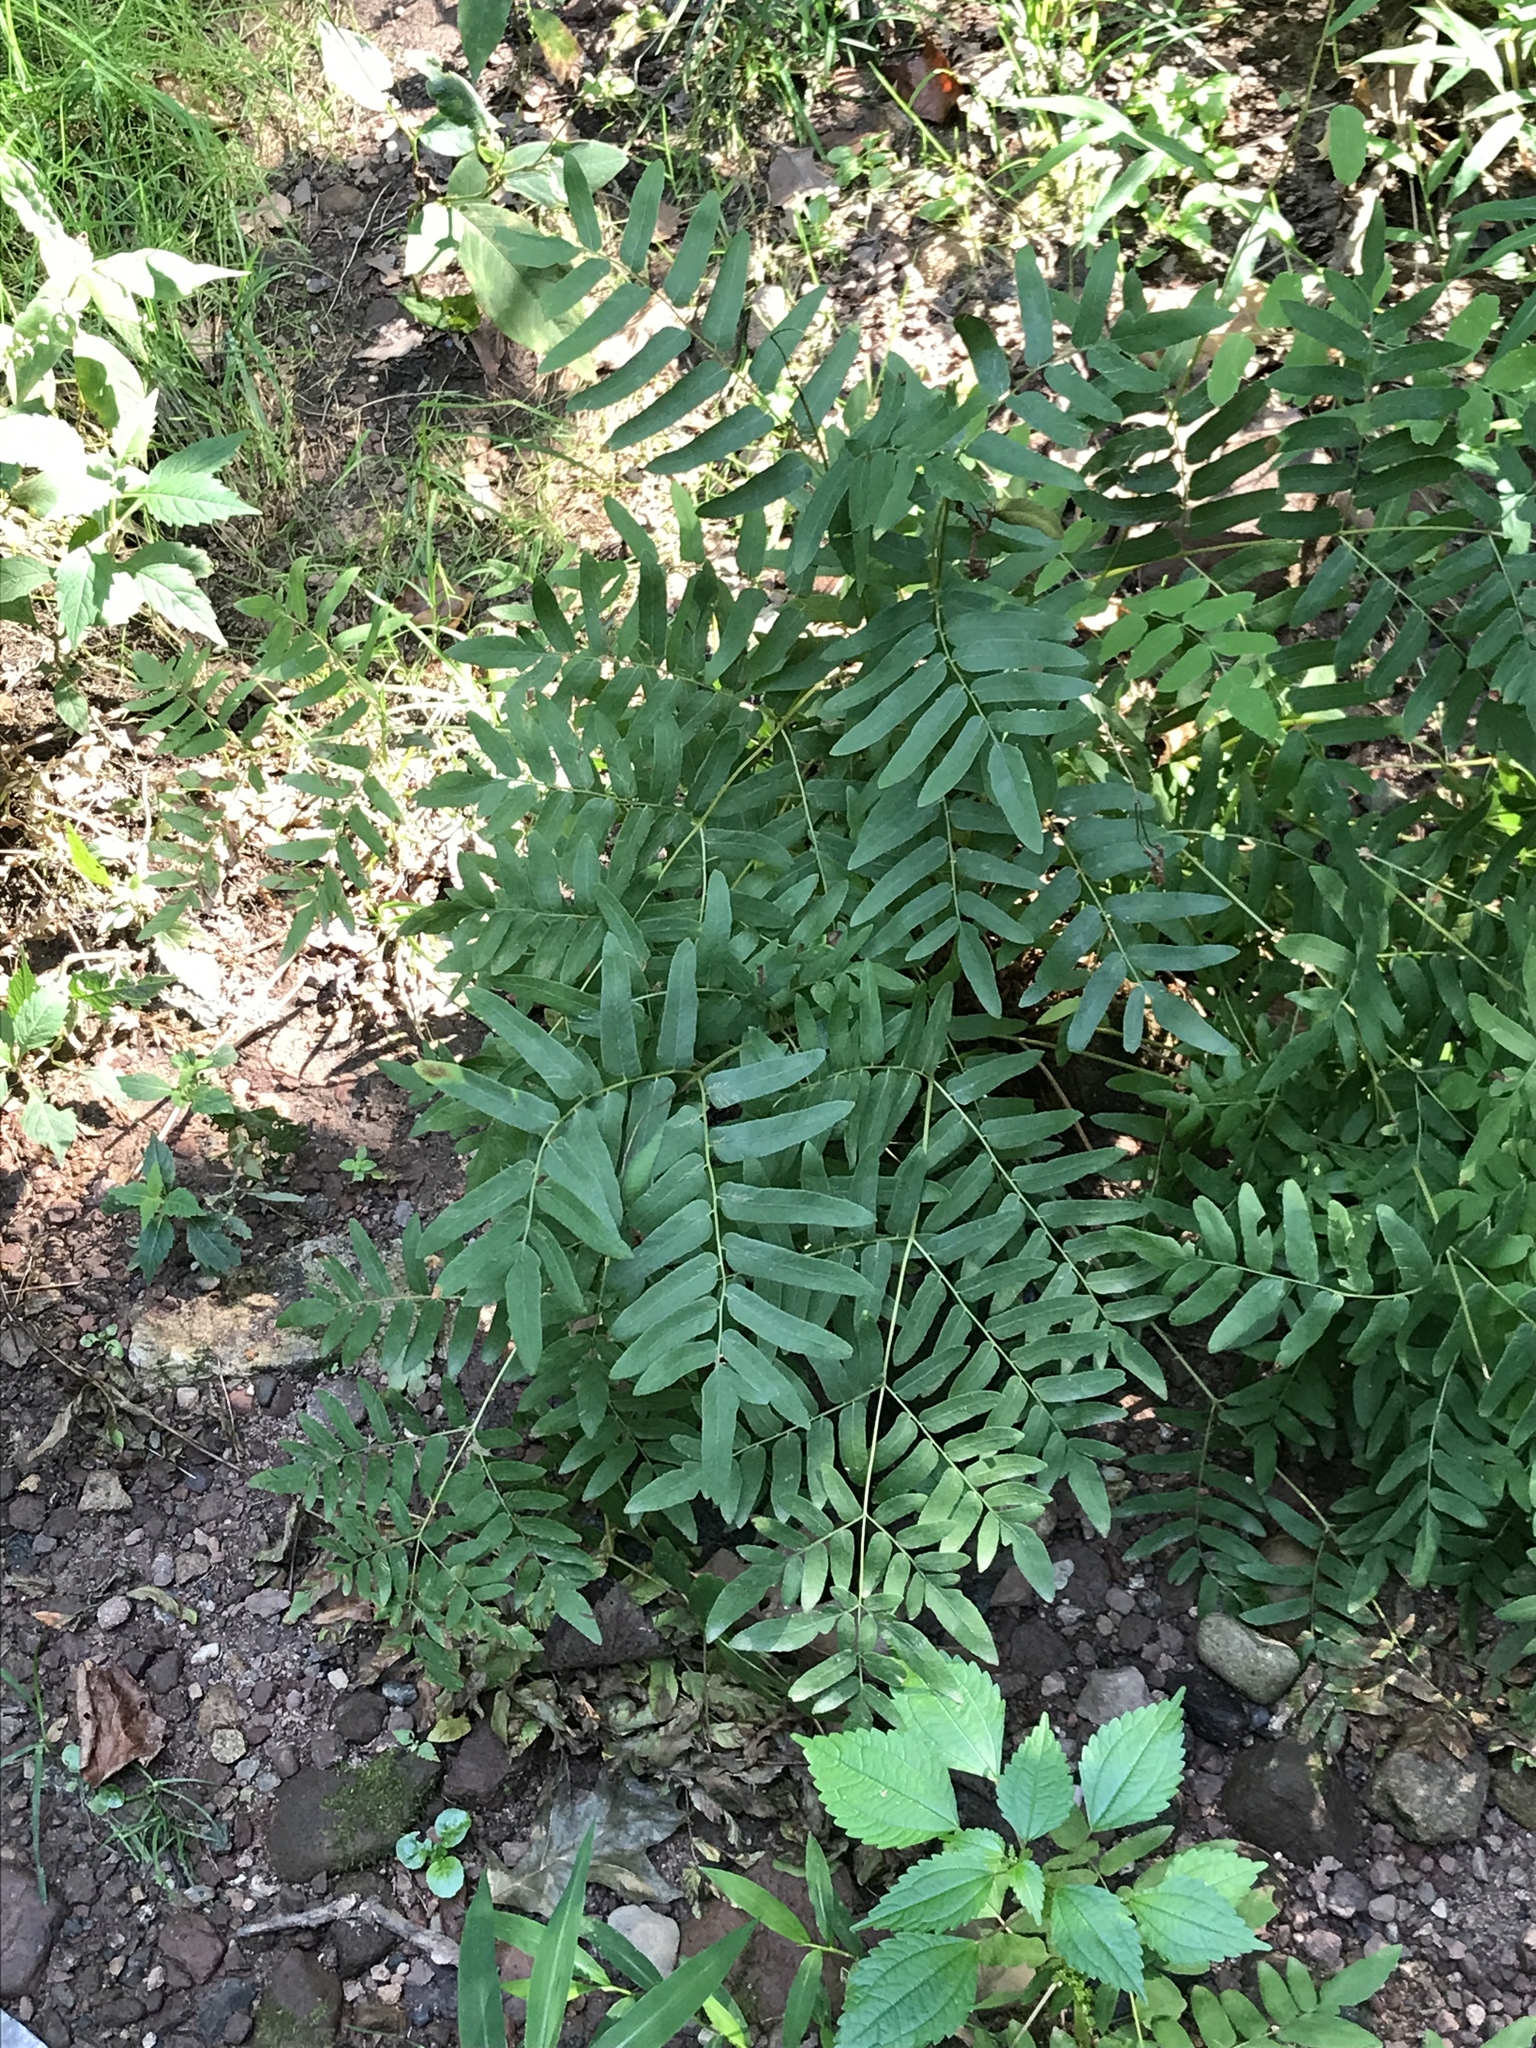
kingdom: Plantae
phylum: Tracheophyta
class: Polypodiopsida
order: Osmundales
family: Osmundaceae
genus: Osmunda
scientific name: Osmunda spectabilis
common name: American royal fern
